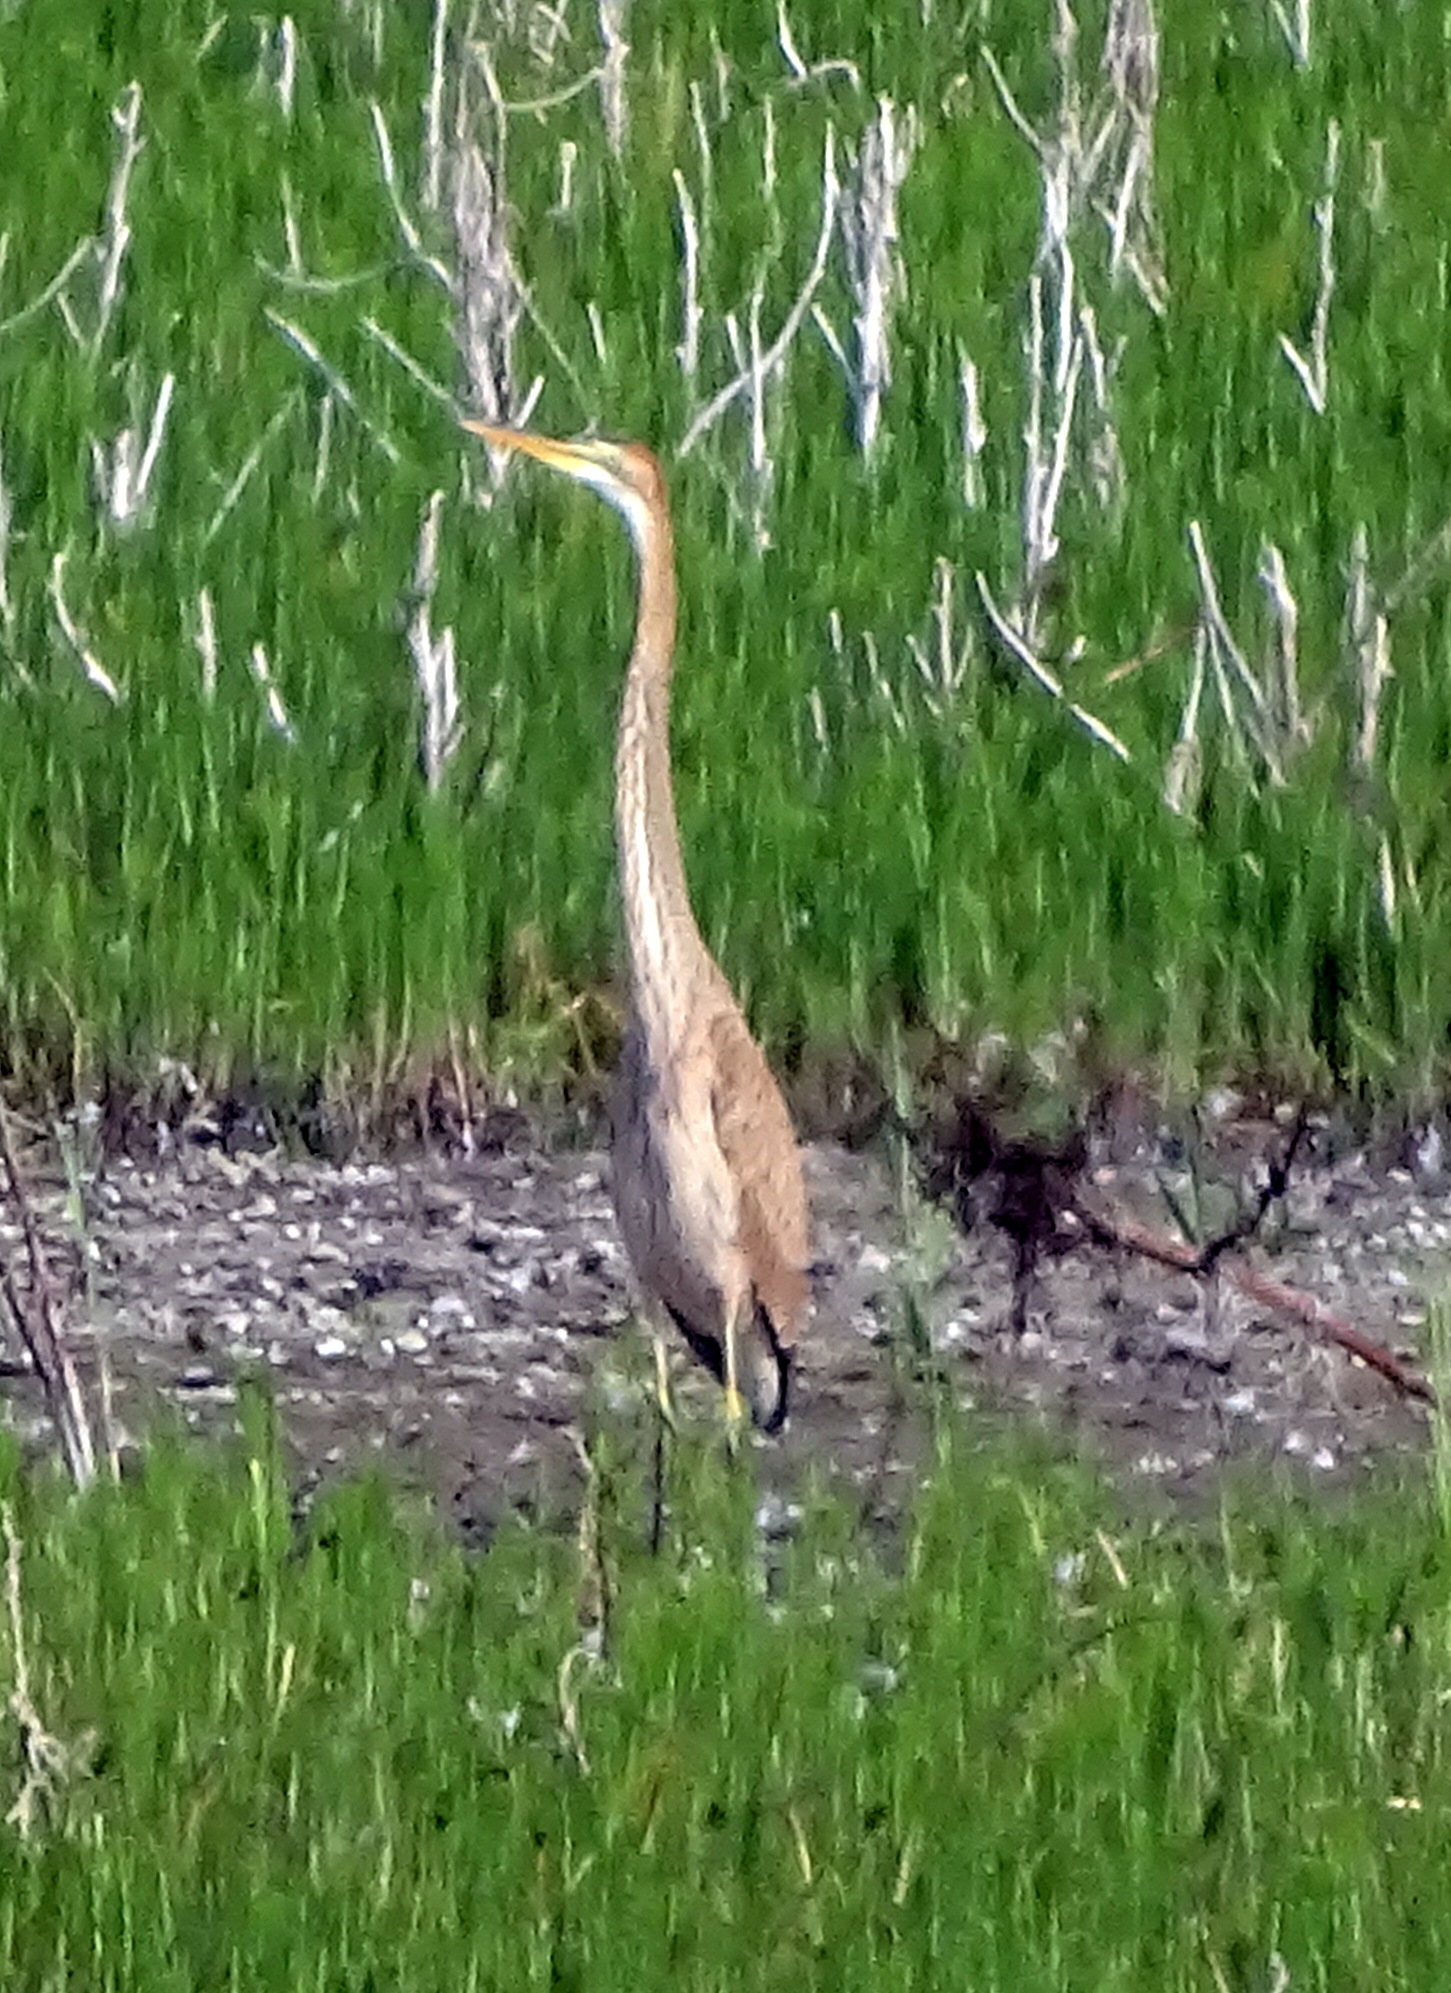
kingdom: Animalia
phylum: Chordata
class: Aves
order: Pelecaniformes
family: Ardeidae
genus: Ardea
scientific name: Ardea purpurea
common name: Purple heron
